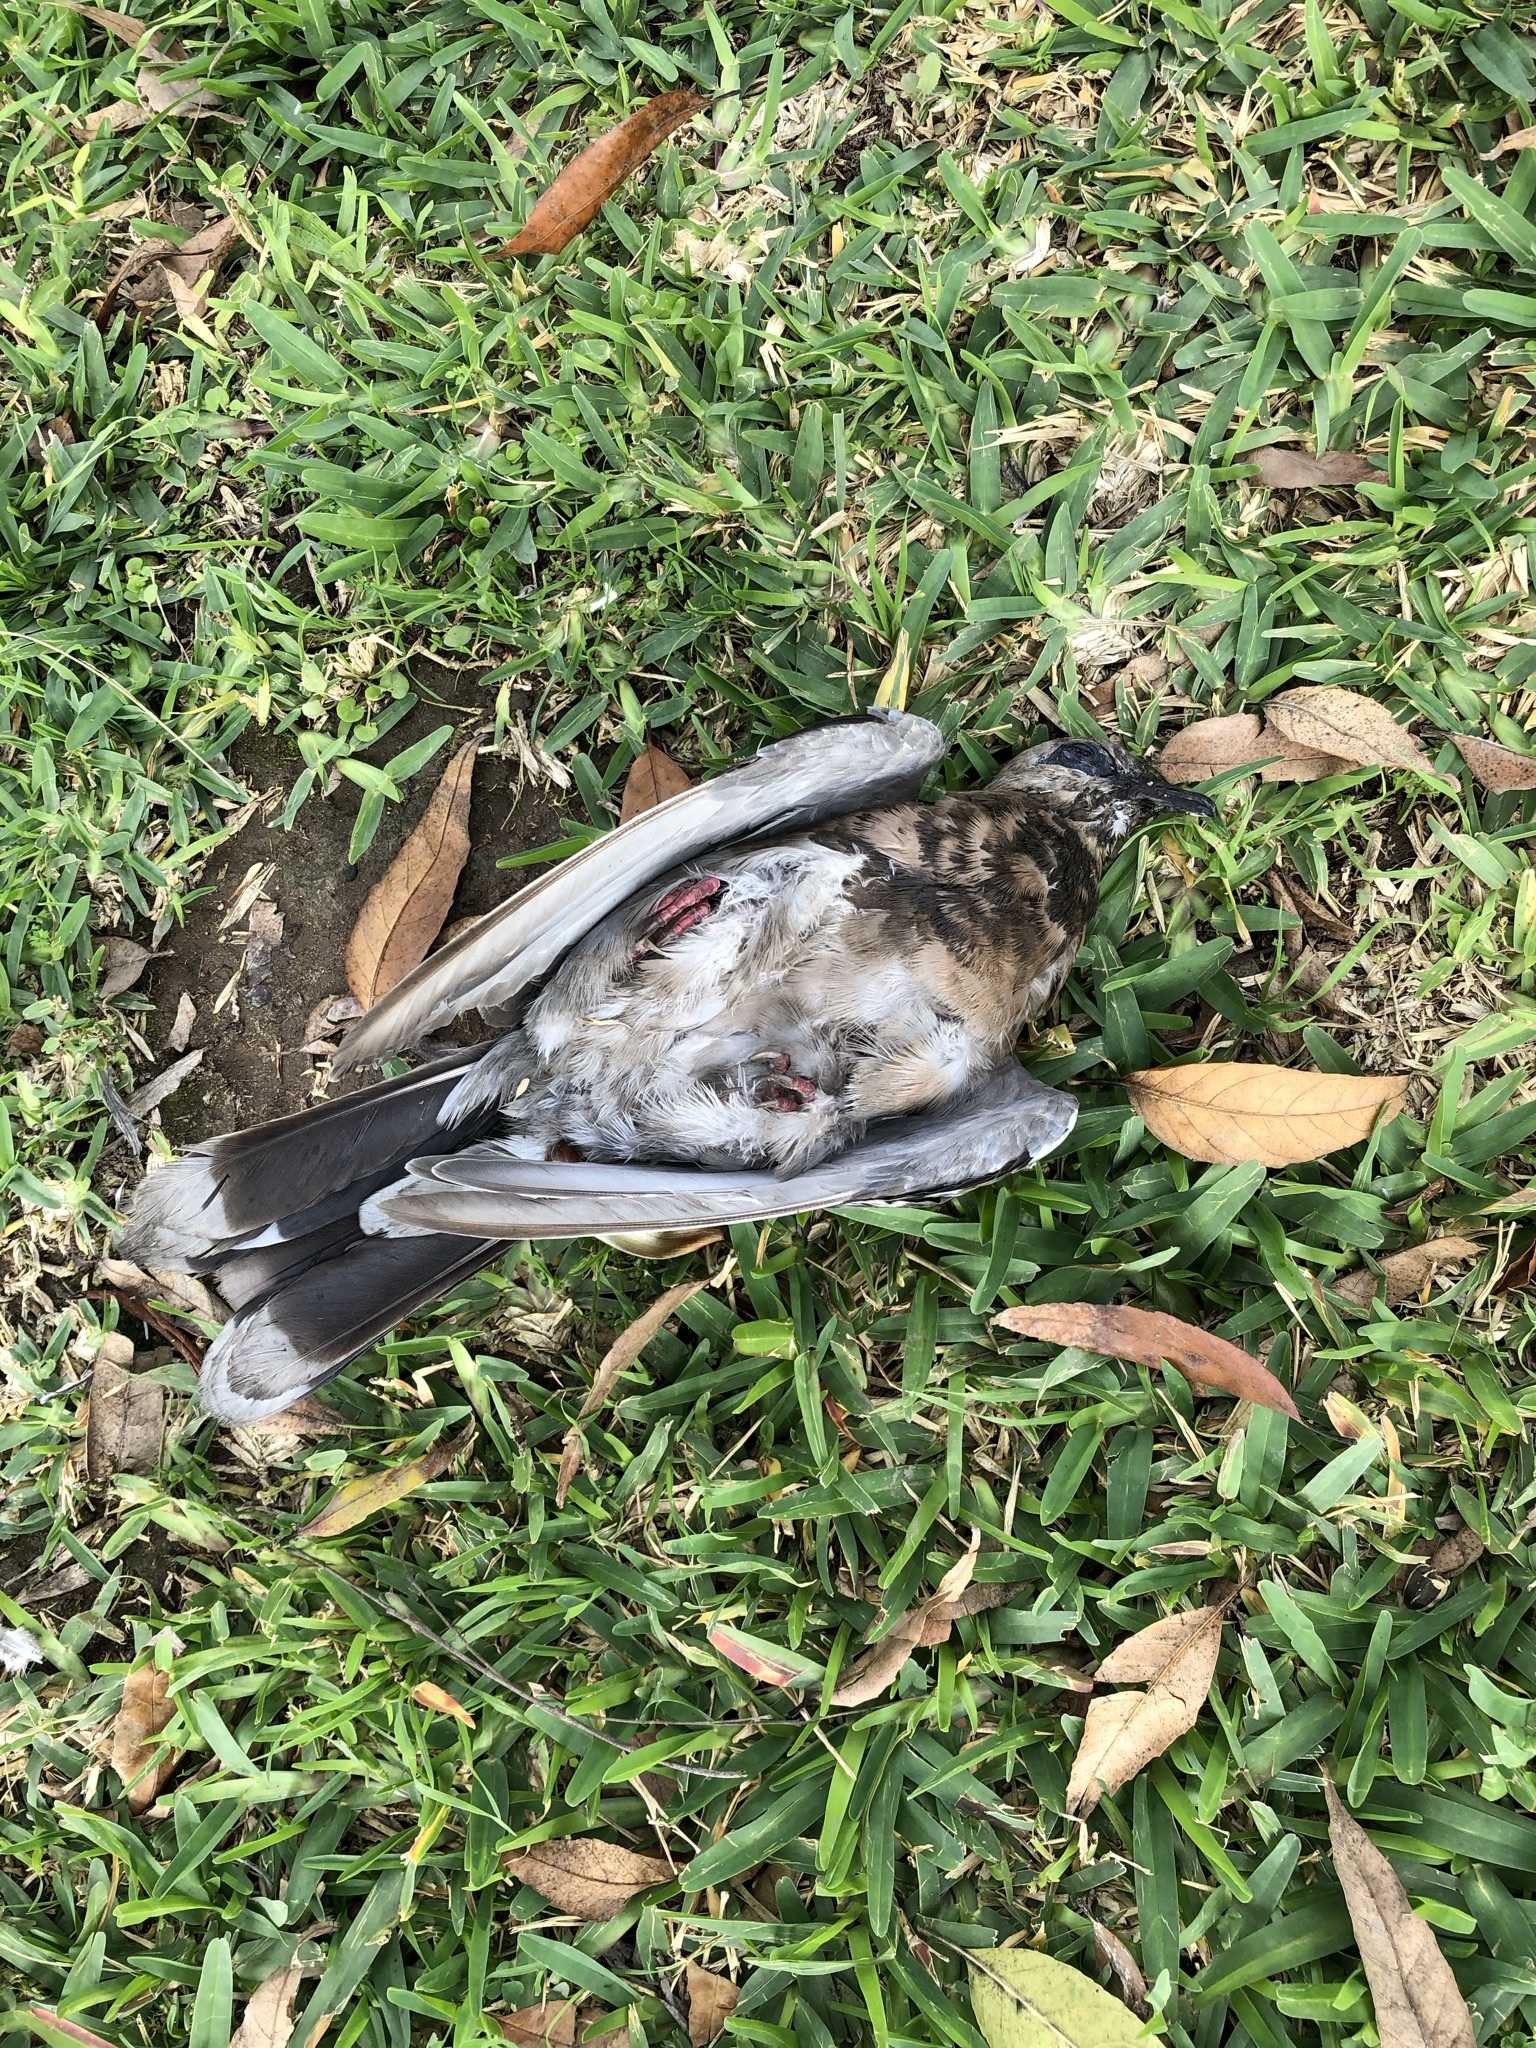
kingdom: Animalia
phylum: Chordata
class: Aves
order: Columbiformes
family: Columbidae
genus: Zenaida
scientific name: Zenaida meloda
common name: West peruvian dove
